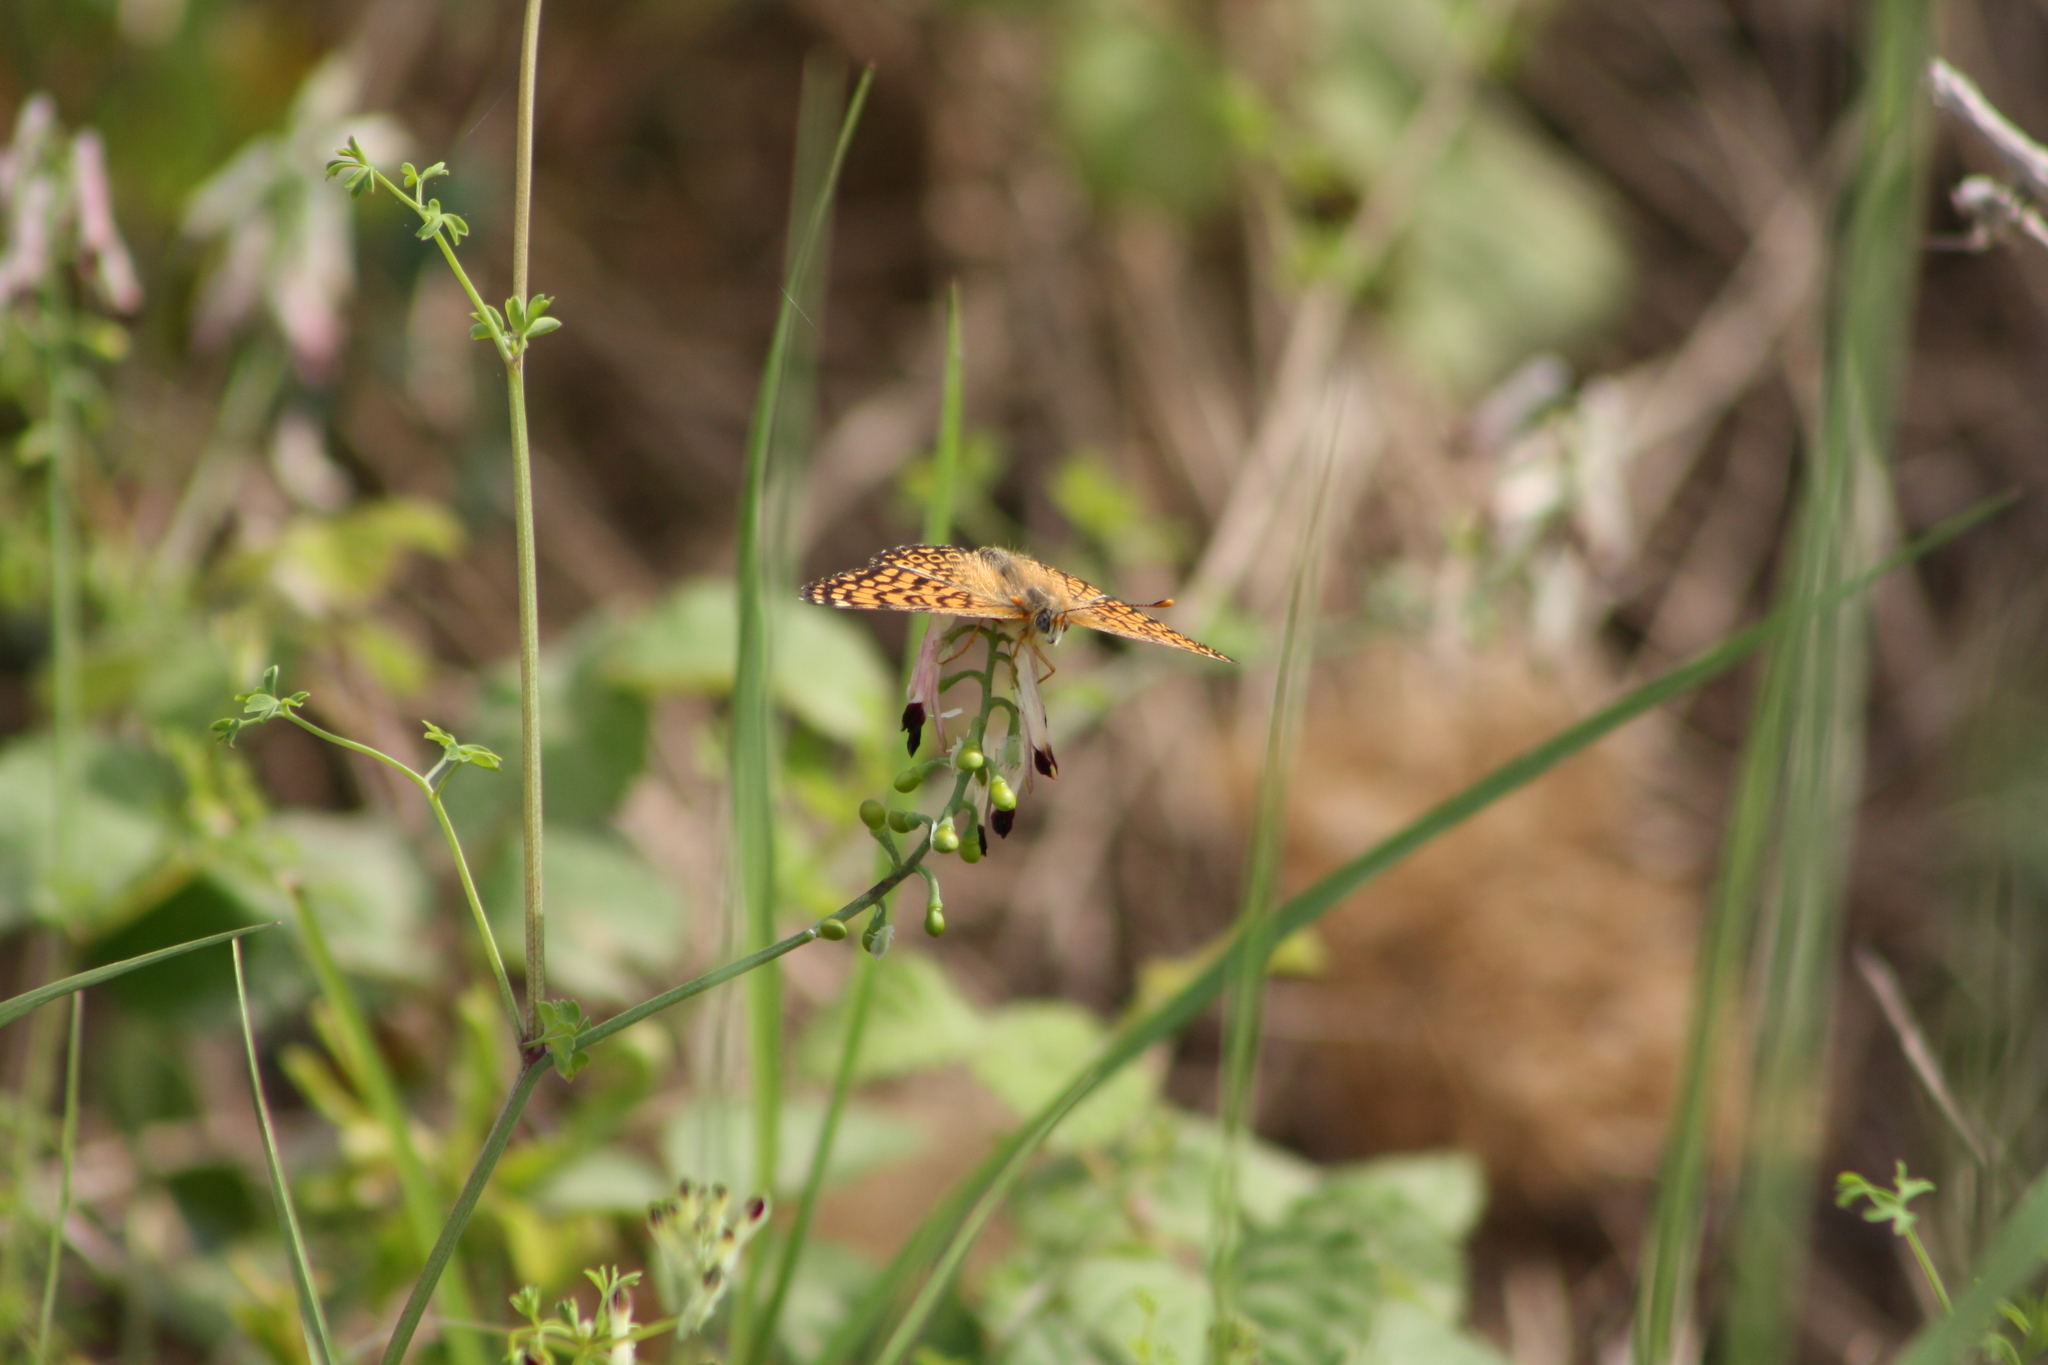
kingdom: Animalia
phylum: Arthropoda
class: Insecta
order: Lepidoptera
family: Nymphalidae
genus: Melitaea
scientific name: Melitaea cinxia
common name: Glanville fritillary
